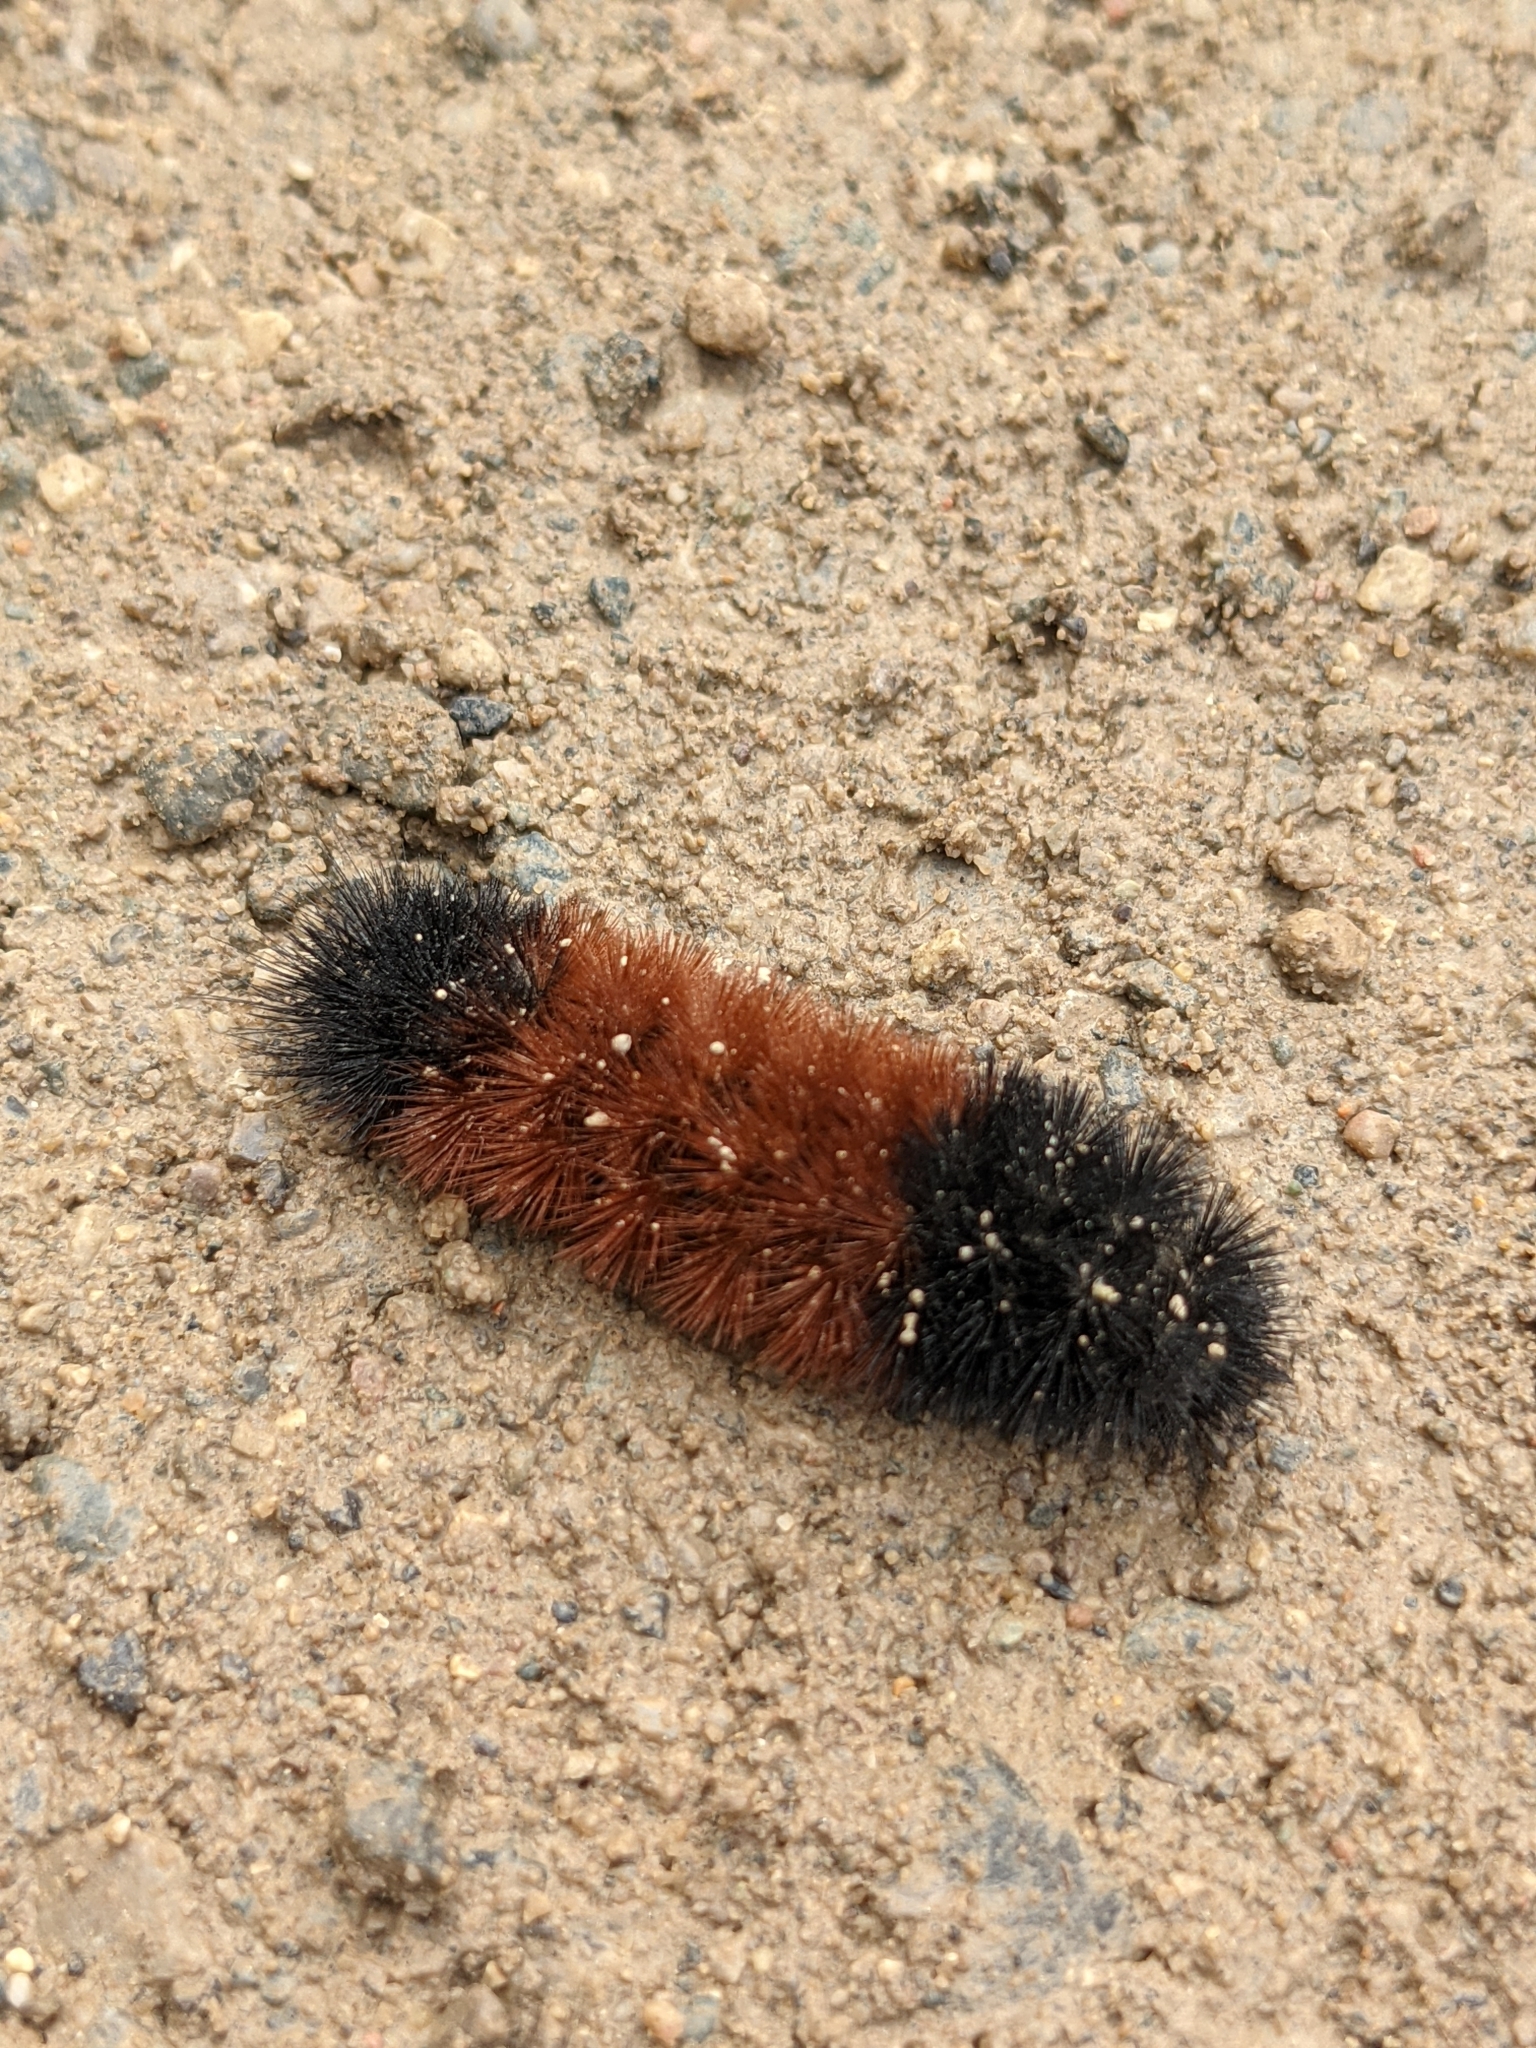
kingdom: Animalia
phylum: Arthropoda
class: Insecta
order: Lepidoptera
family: Erebidae
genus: Pyrrharctia
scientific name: Pyrrharctia isabella
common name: Isabella tiger moth
